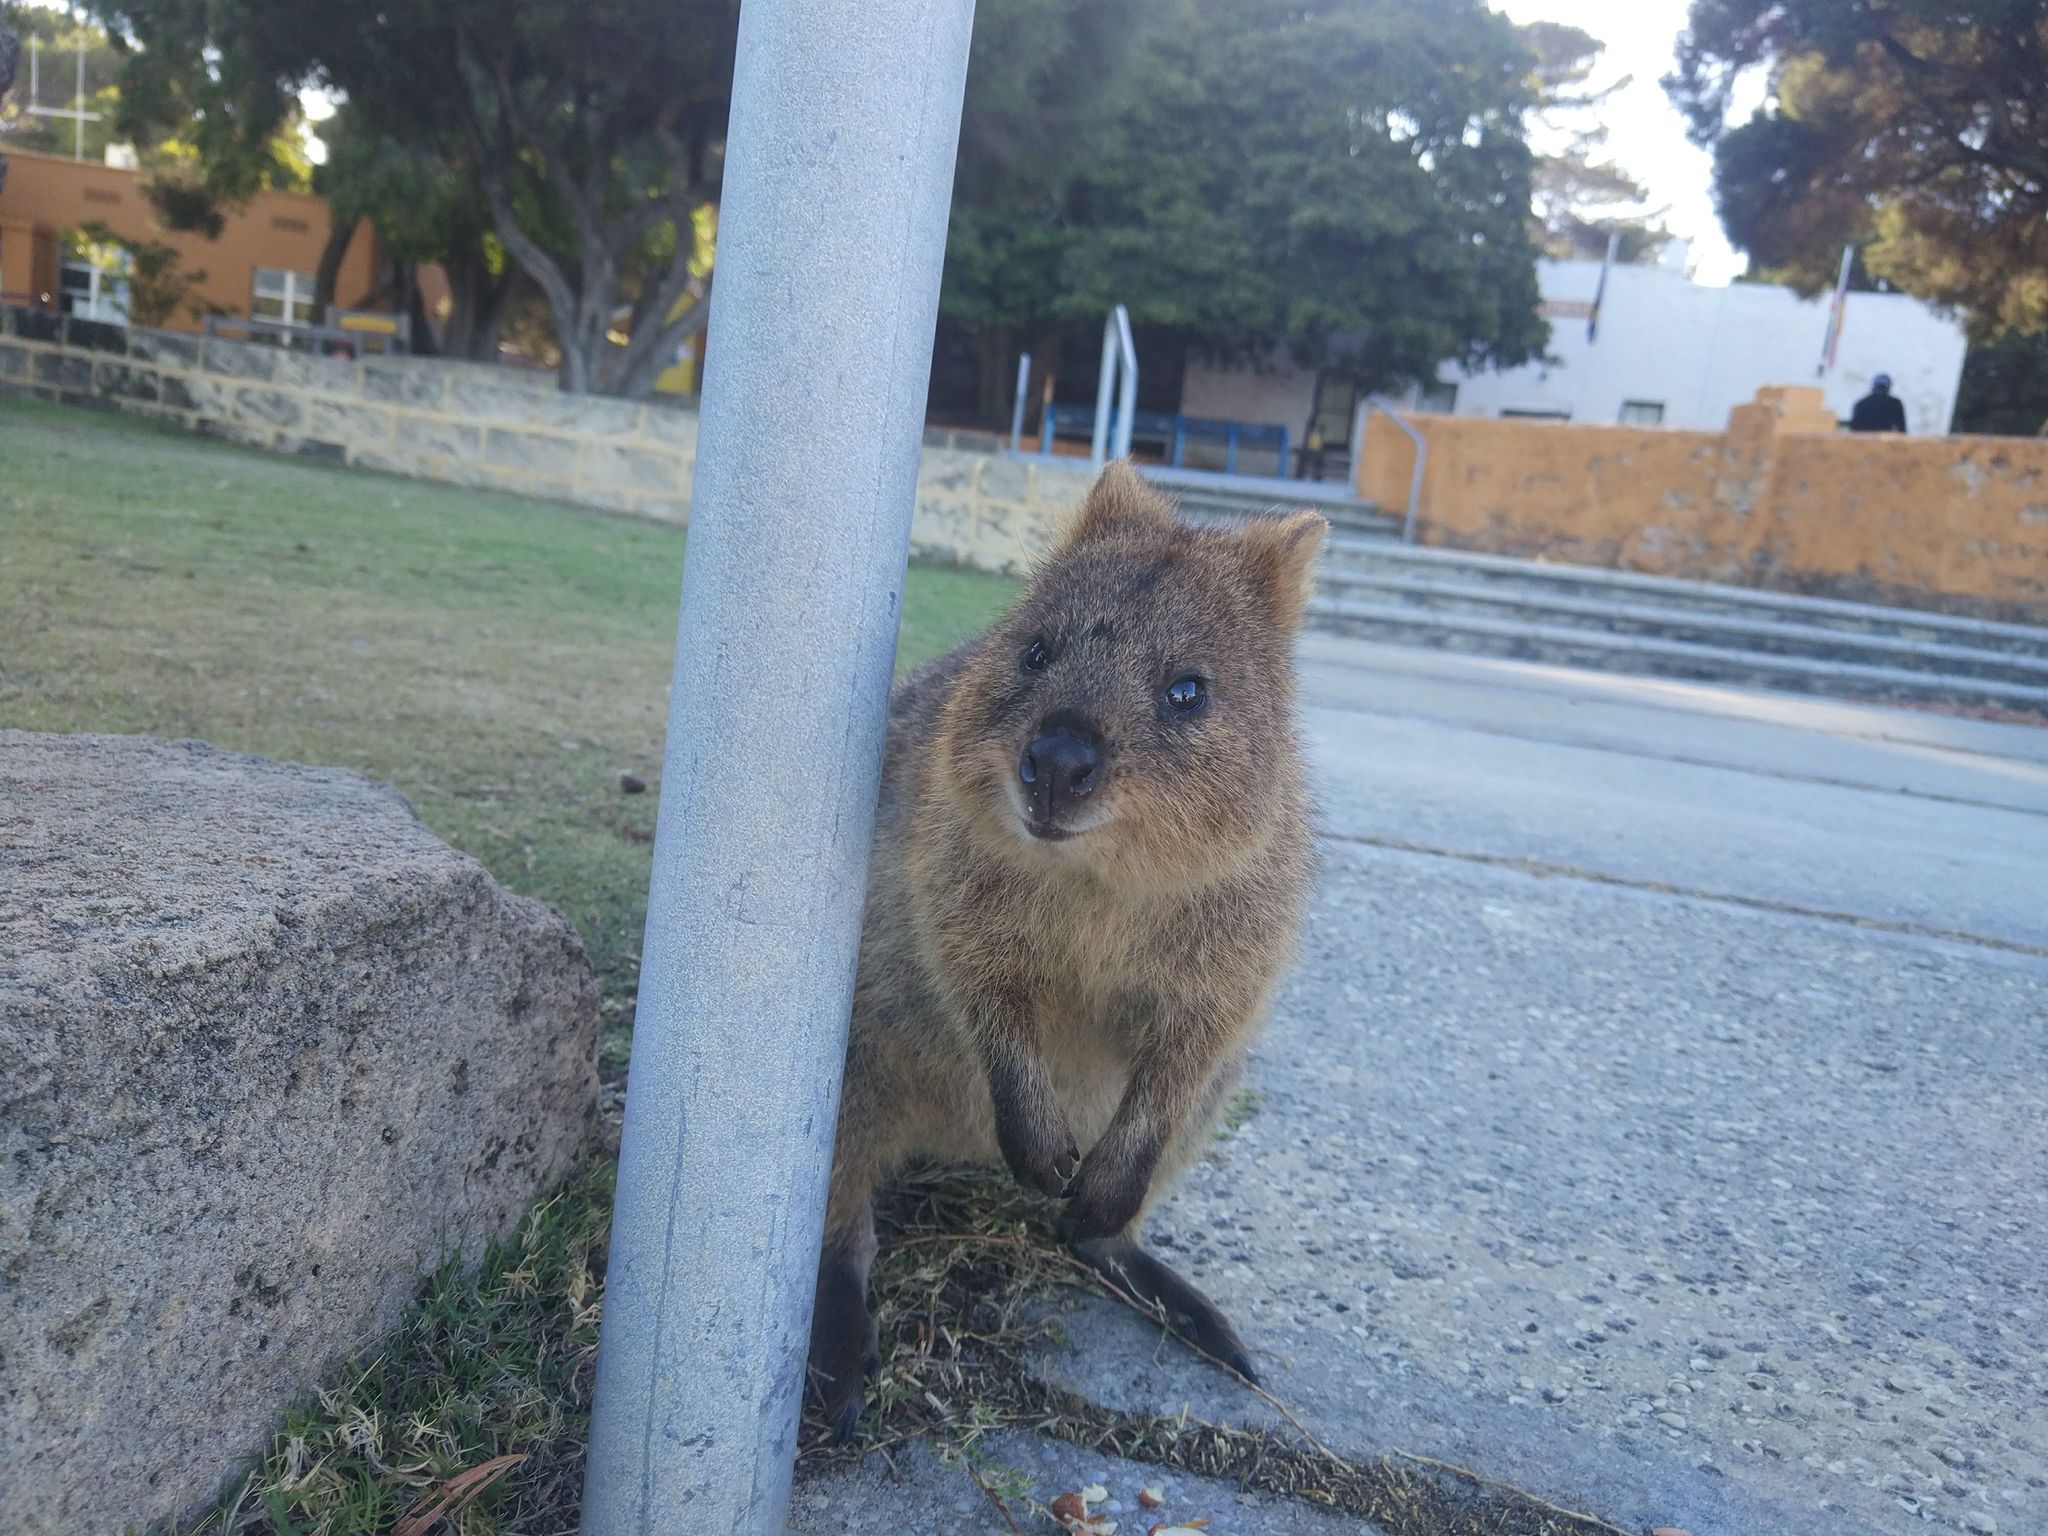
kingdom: Animalia
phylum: Chordata
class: Mammalia
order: Diprotodontia
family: Macropodidae
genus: Setonix
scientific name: Setonix brachyurus
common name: Quokka
